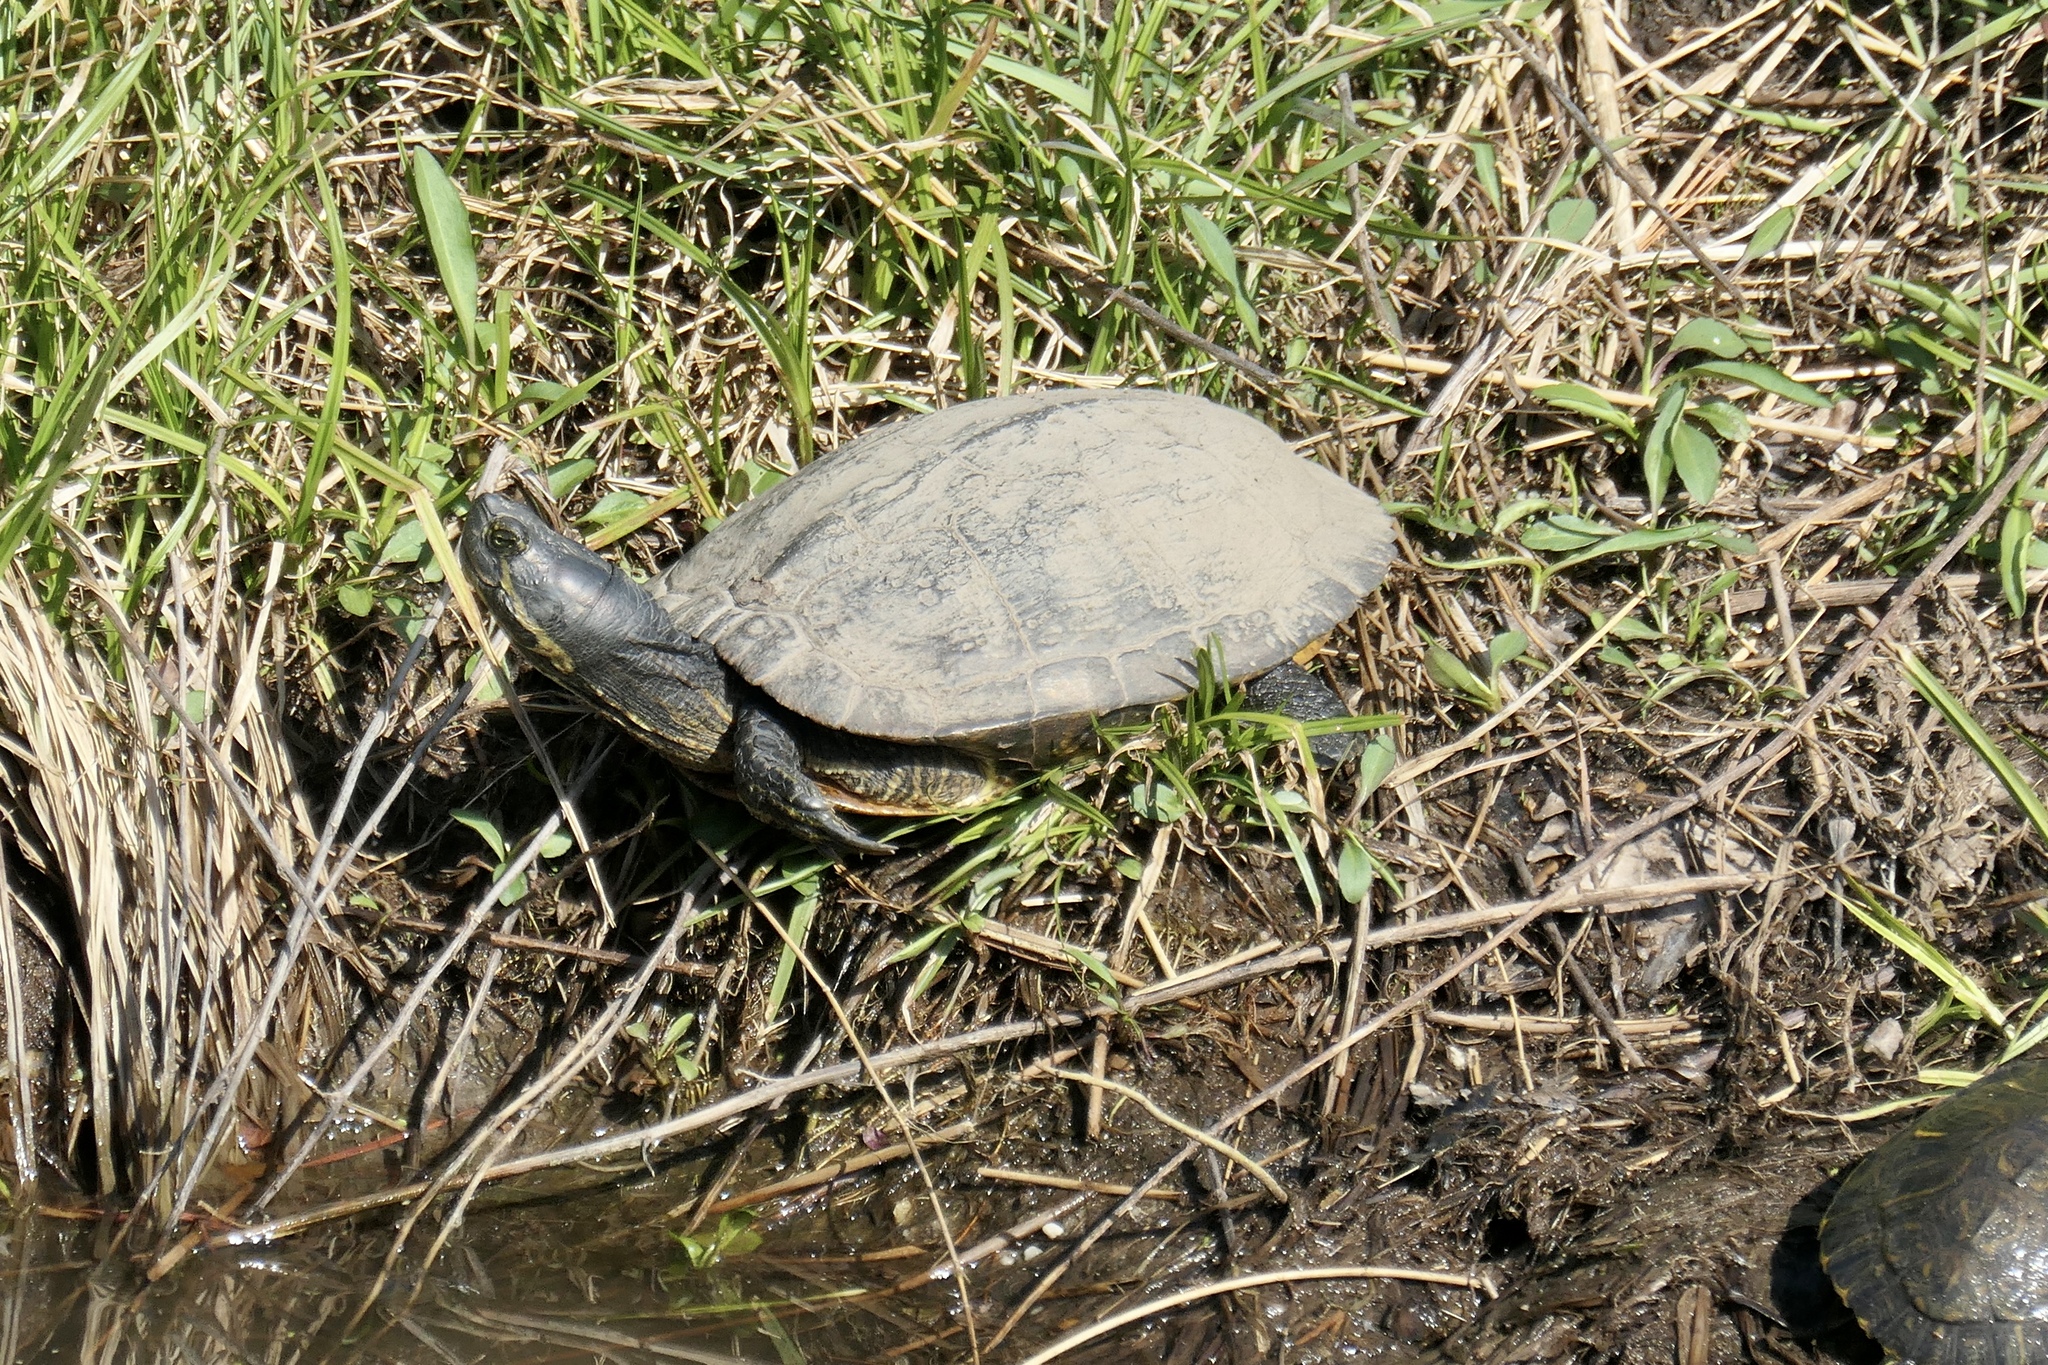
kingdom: Animalia
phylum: Chordata
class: Testudines
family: Emydidae
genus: Trachemys
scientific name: Trachemys scripta
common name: Slider
